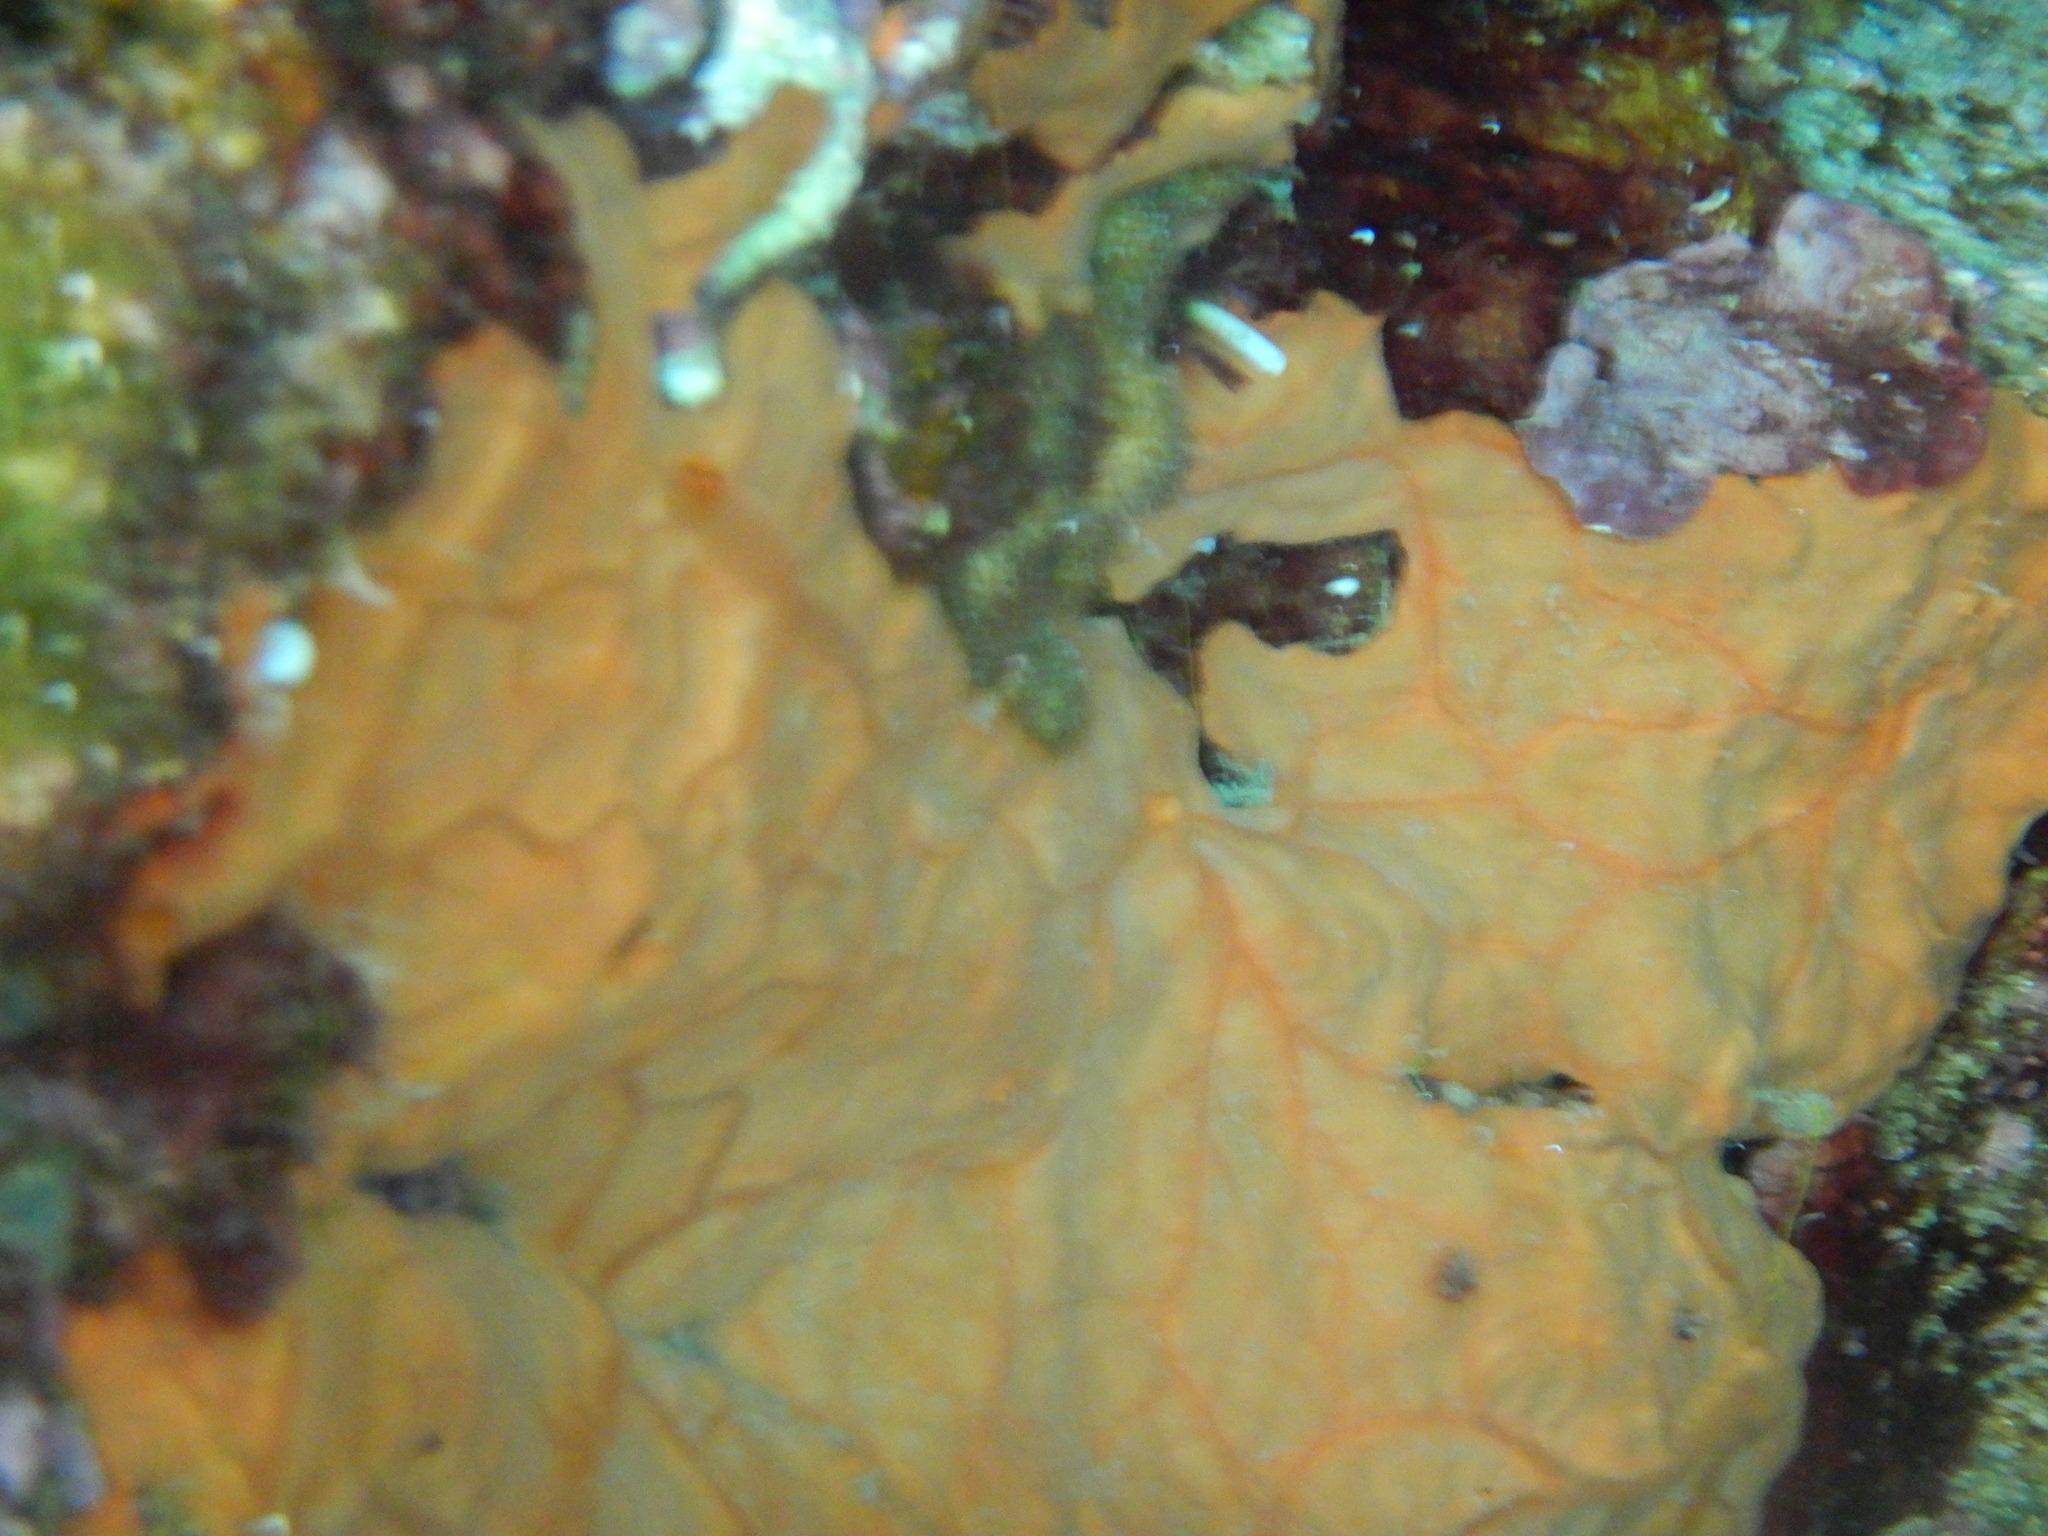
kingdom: Animalia
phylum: Porifera
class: Demospongiae
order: Clionaida
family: Spirastrellidae
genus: Spirastrella
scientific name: Spirastrella cunctatrix
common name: Encrusting orange sponge
